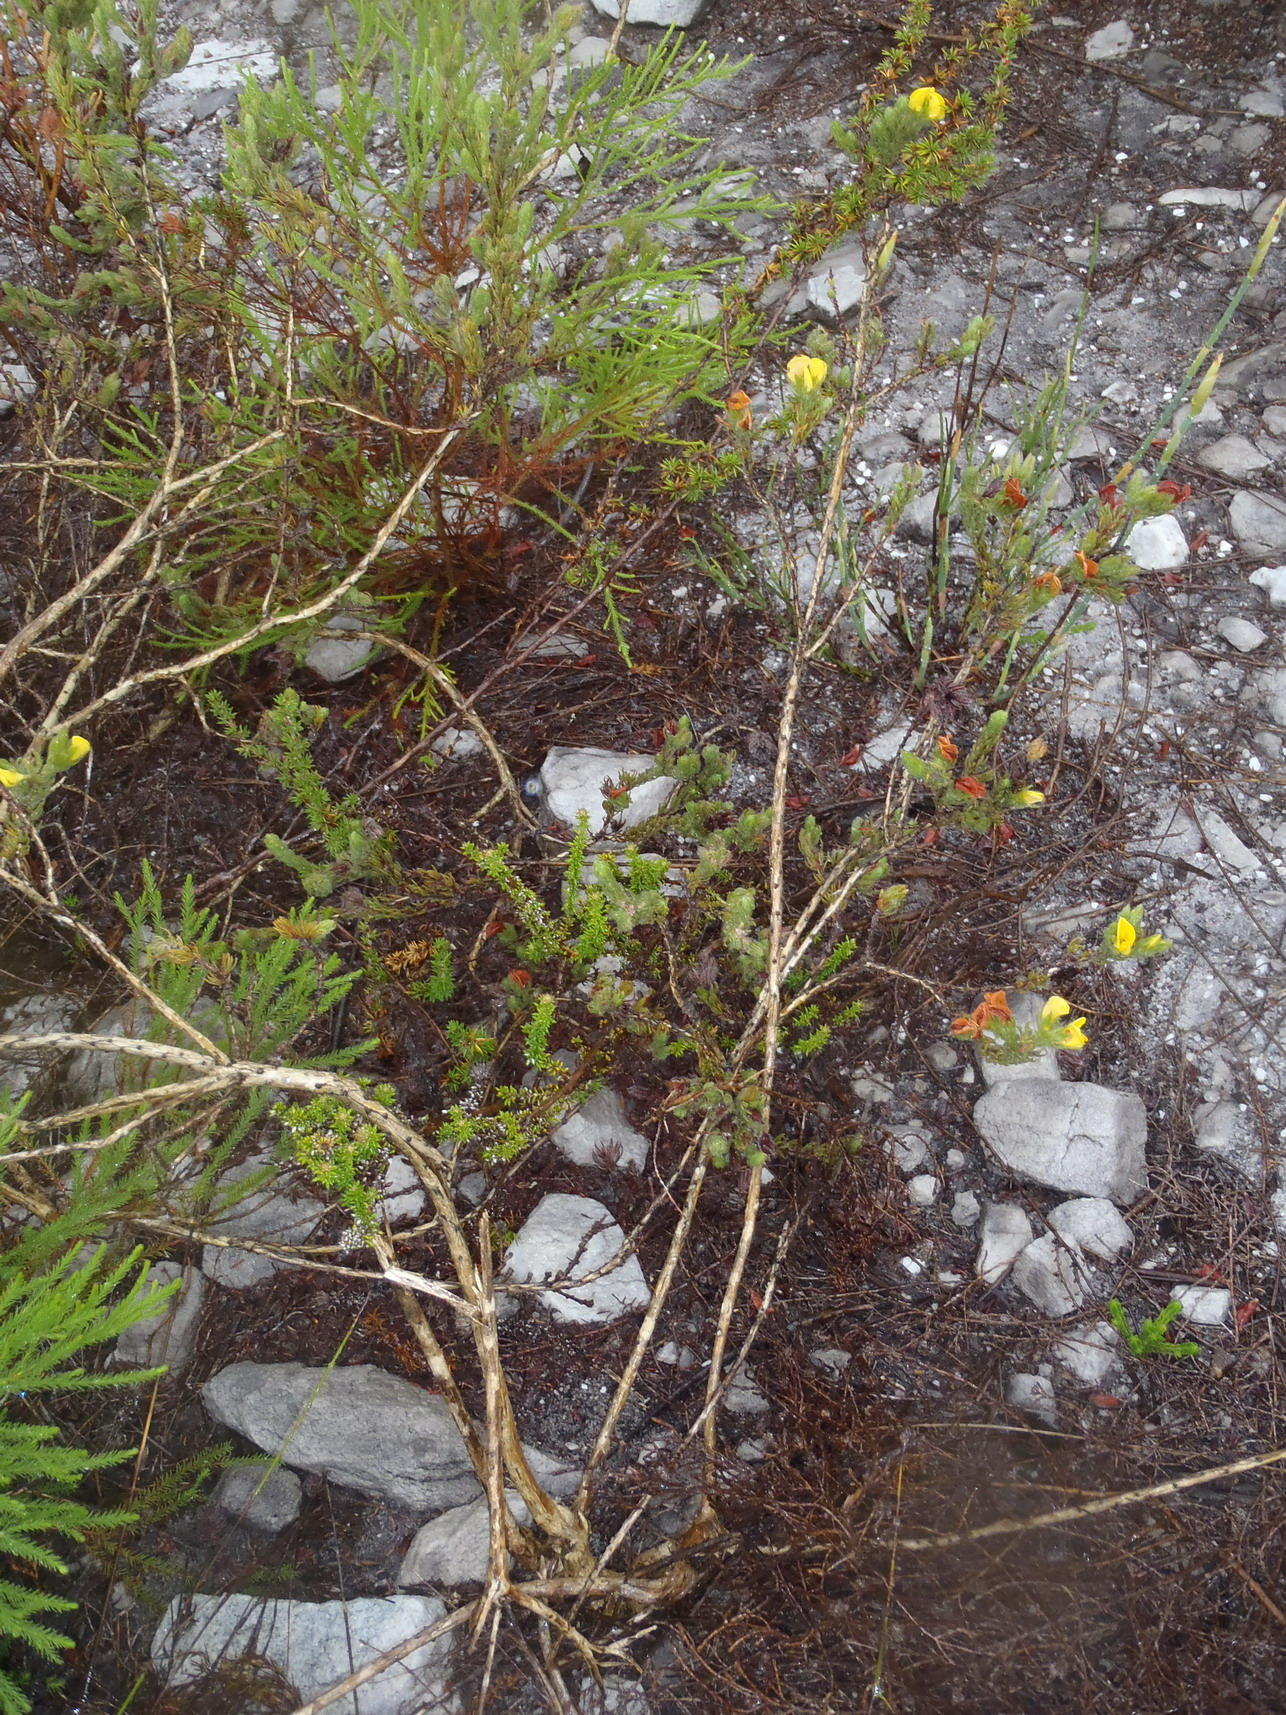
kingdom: Plantae
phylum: Tracheophyta
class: Magnoliopsida
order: Fabales
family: Fabaceae
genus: Aspalathus
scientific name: Aspalathus ciliaris
